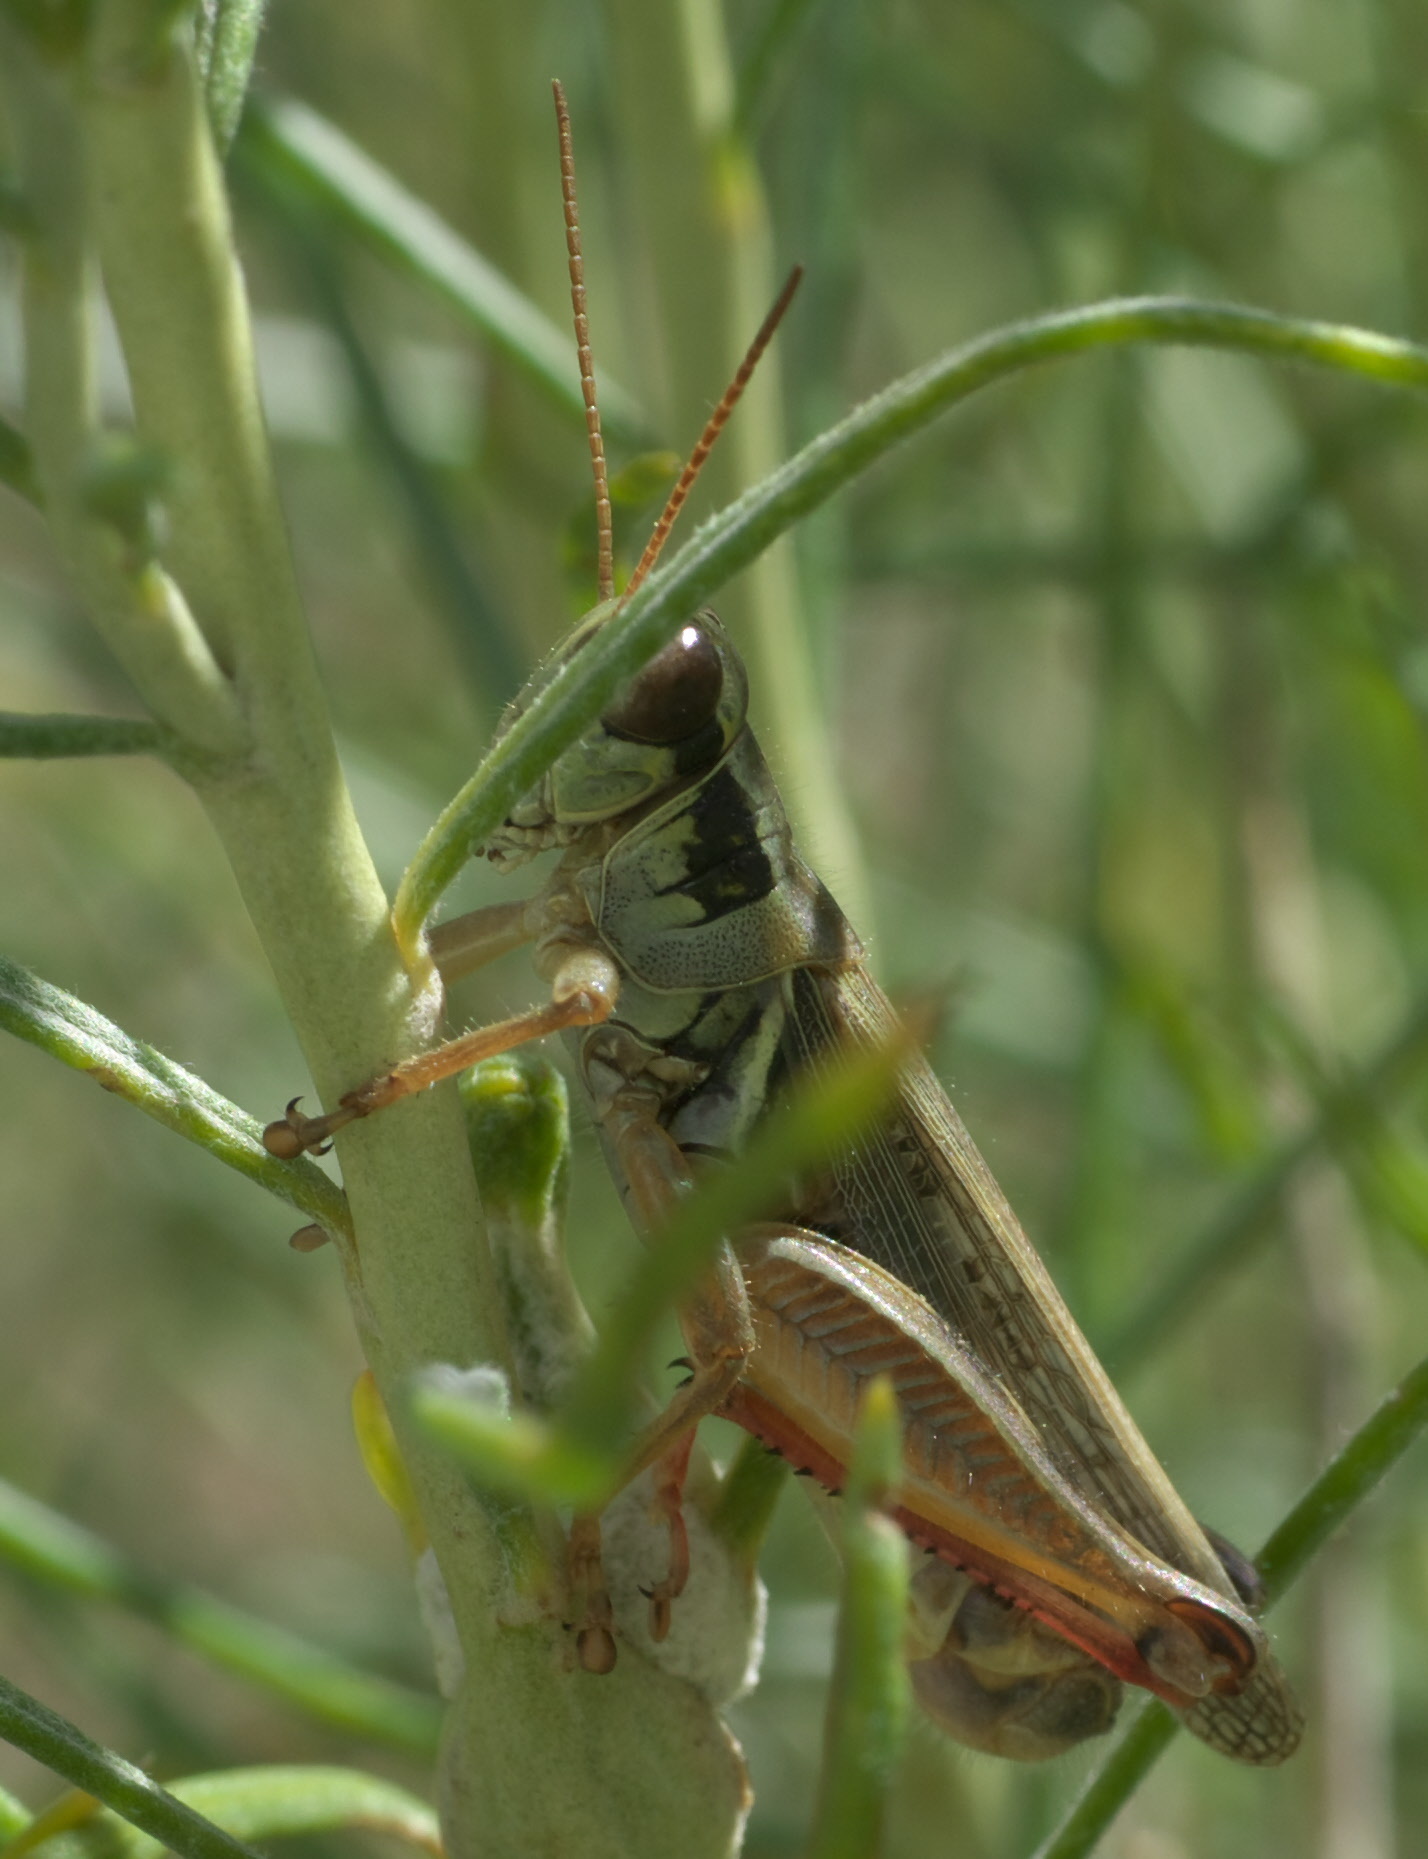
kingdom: Animalia
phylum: Arthropoda
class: Insecta
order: Orthoptera
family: Acrididae
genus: Melanoplus
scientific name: Melanoplus femurrubrum
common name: Red-legged grasshopper
